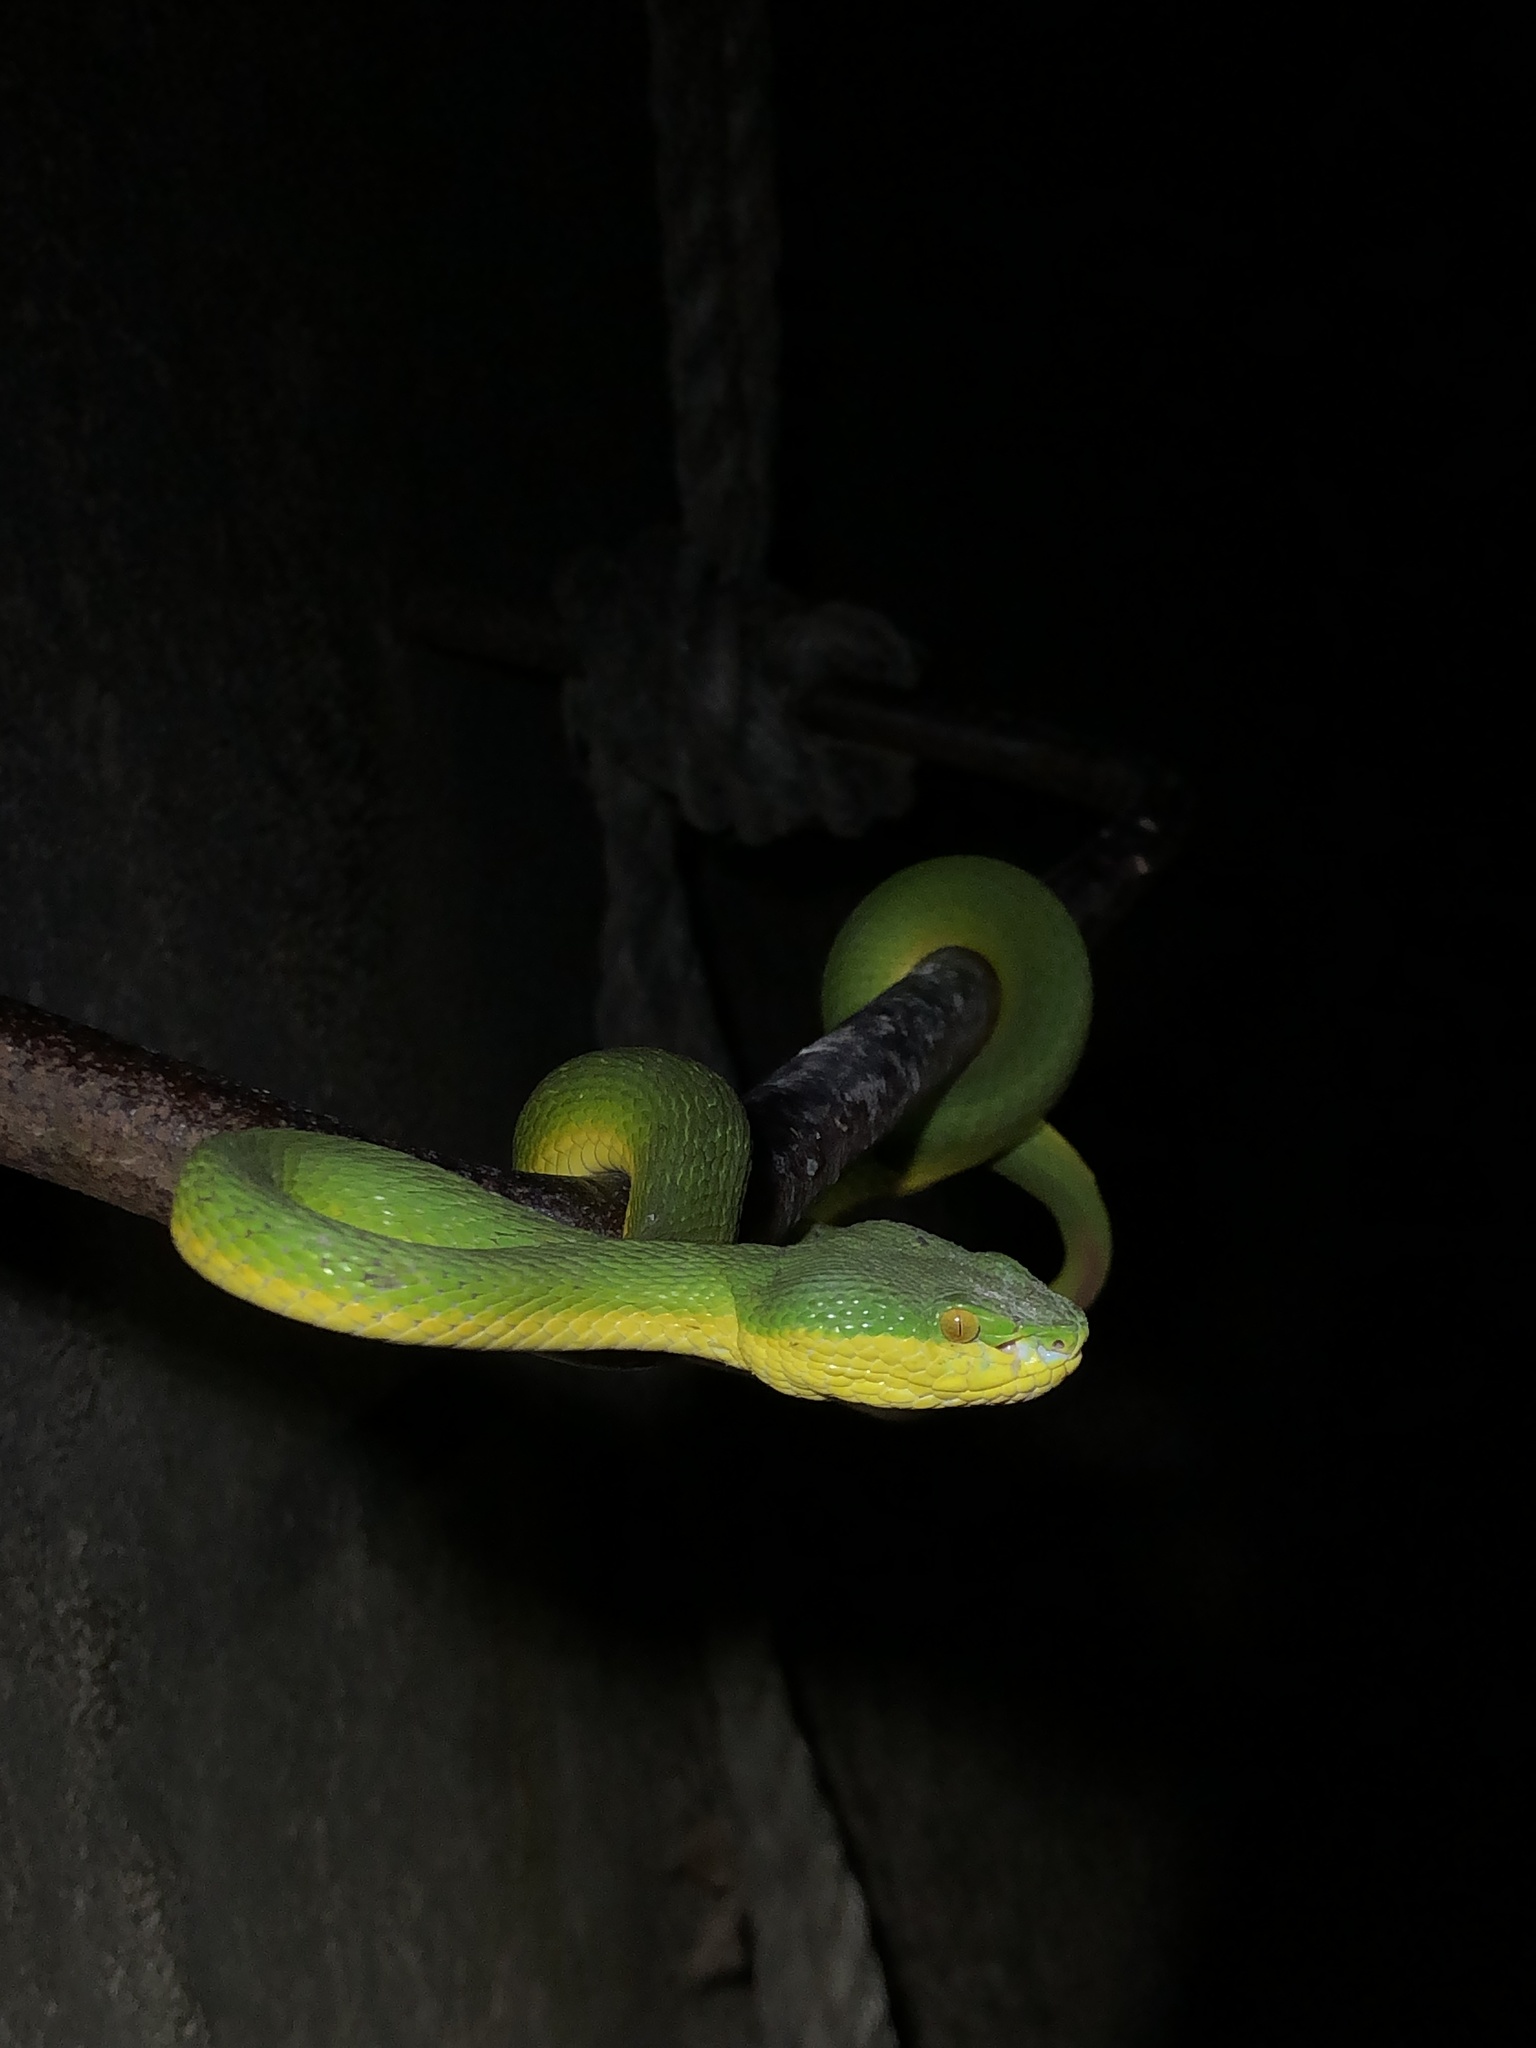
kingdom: Animalia
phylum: Chordata
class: Squamata
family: Viperidae
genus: Trimeresurus
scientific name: Trimeresurus albolabris
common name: White-lipped pitviper
